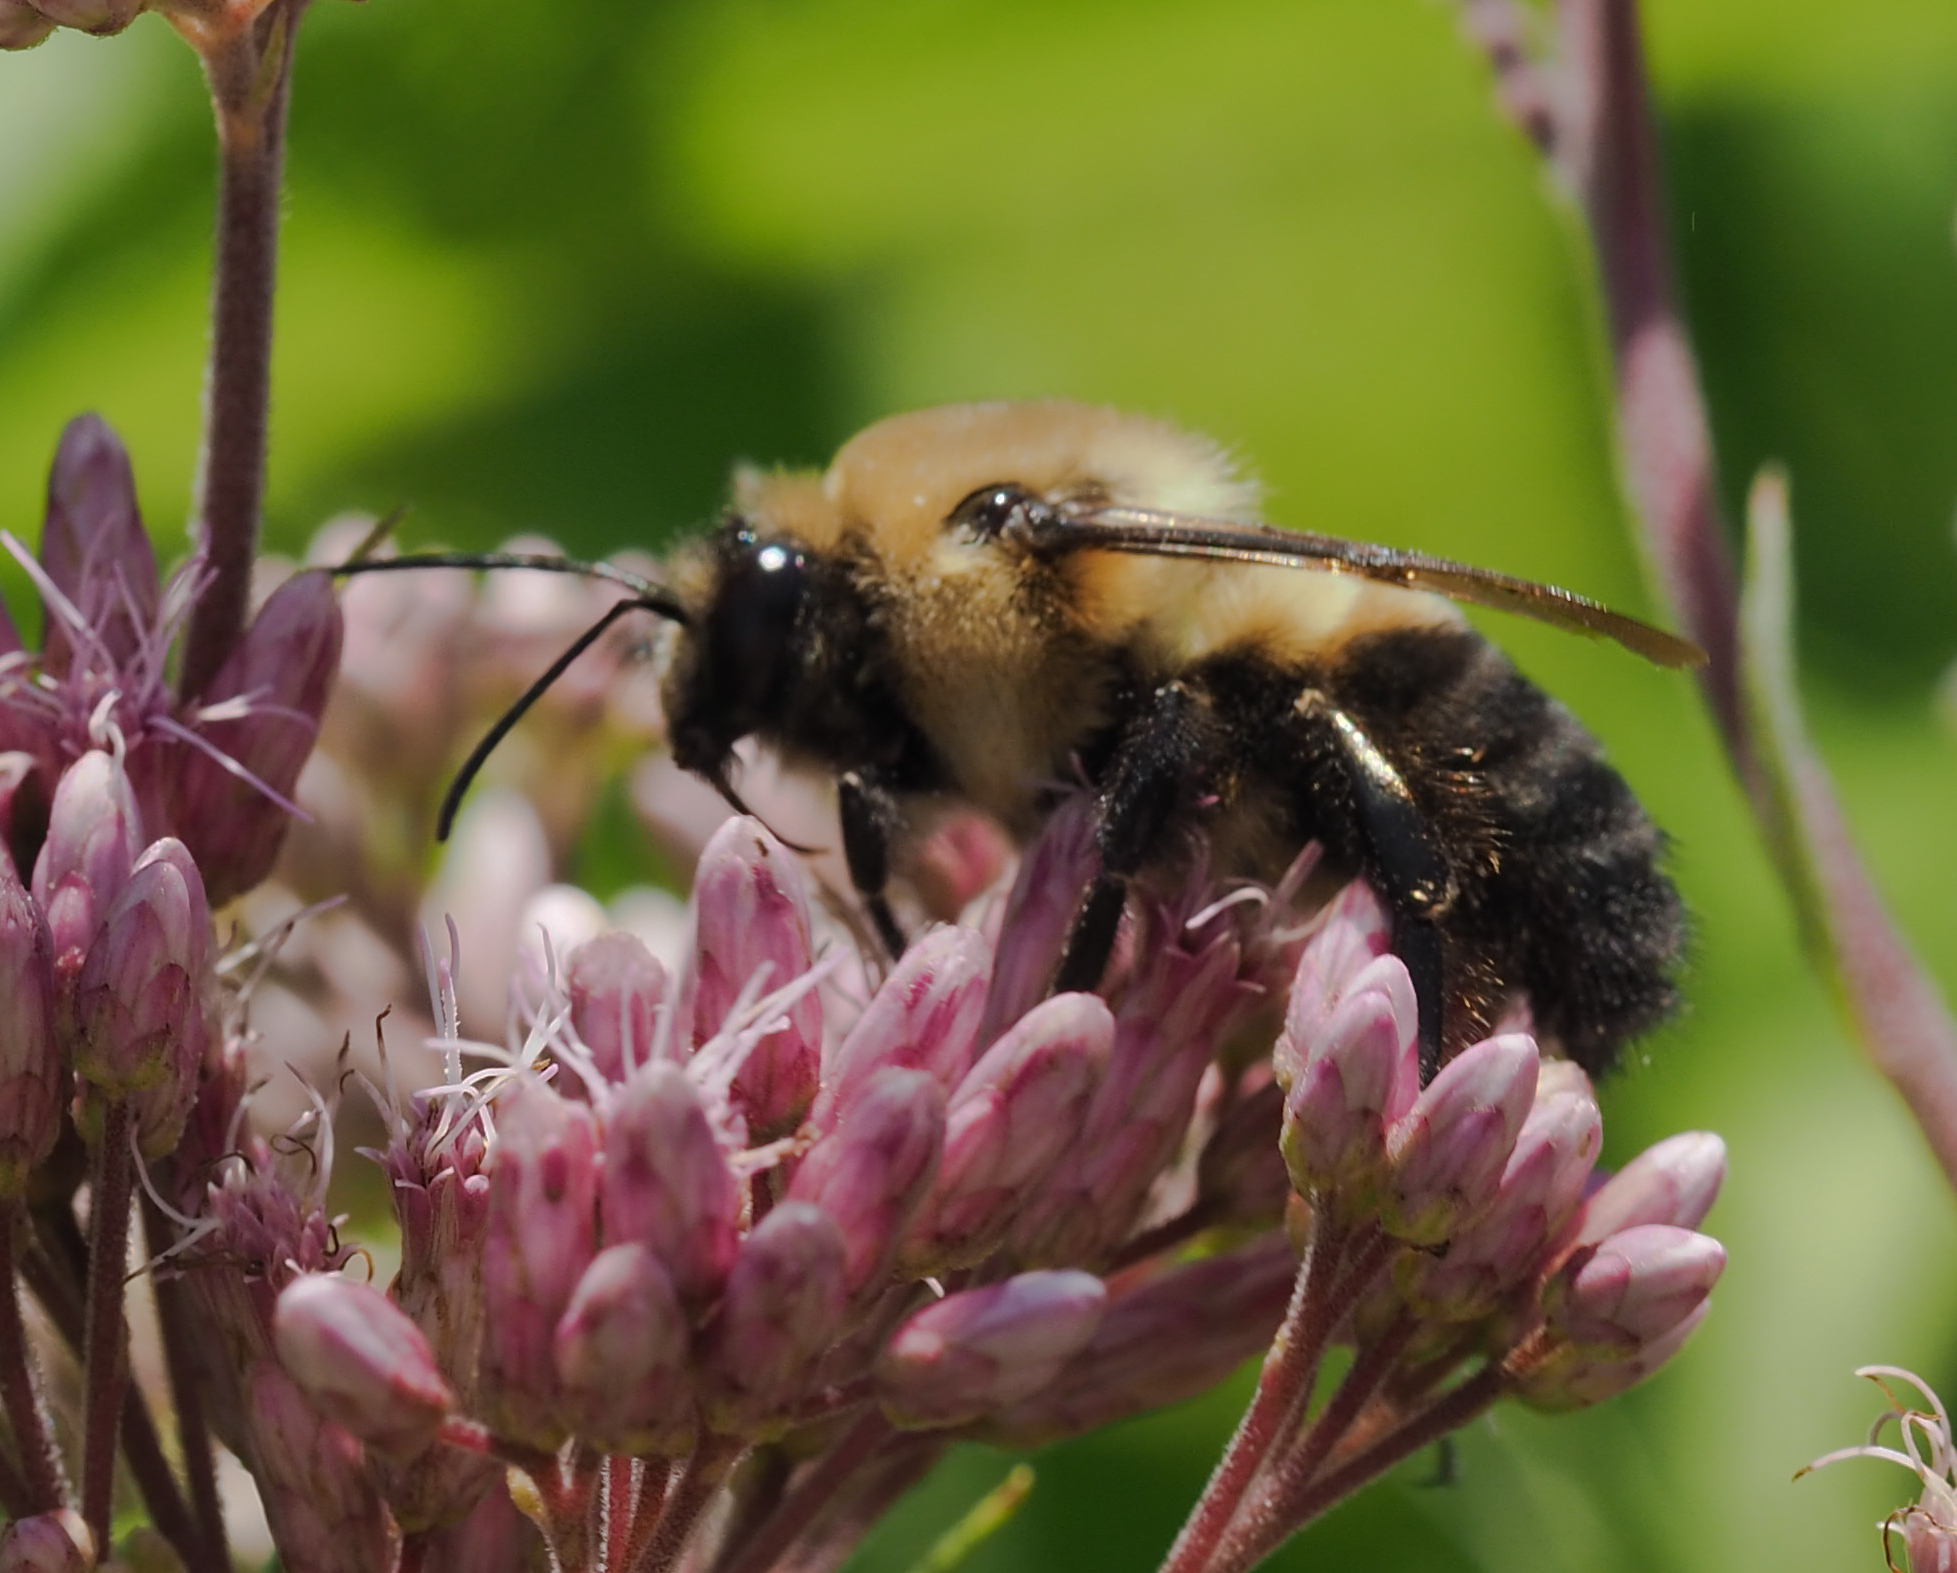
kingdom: Animalia
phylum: Arthropoda
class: Insecta
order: Hymenoptera
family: Apidae
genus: Bombus
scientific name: Bombus griseocollis
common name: Brown-belted bumble bee
